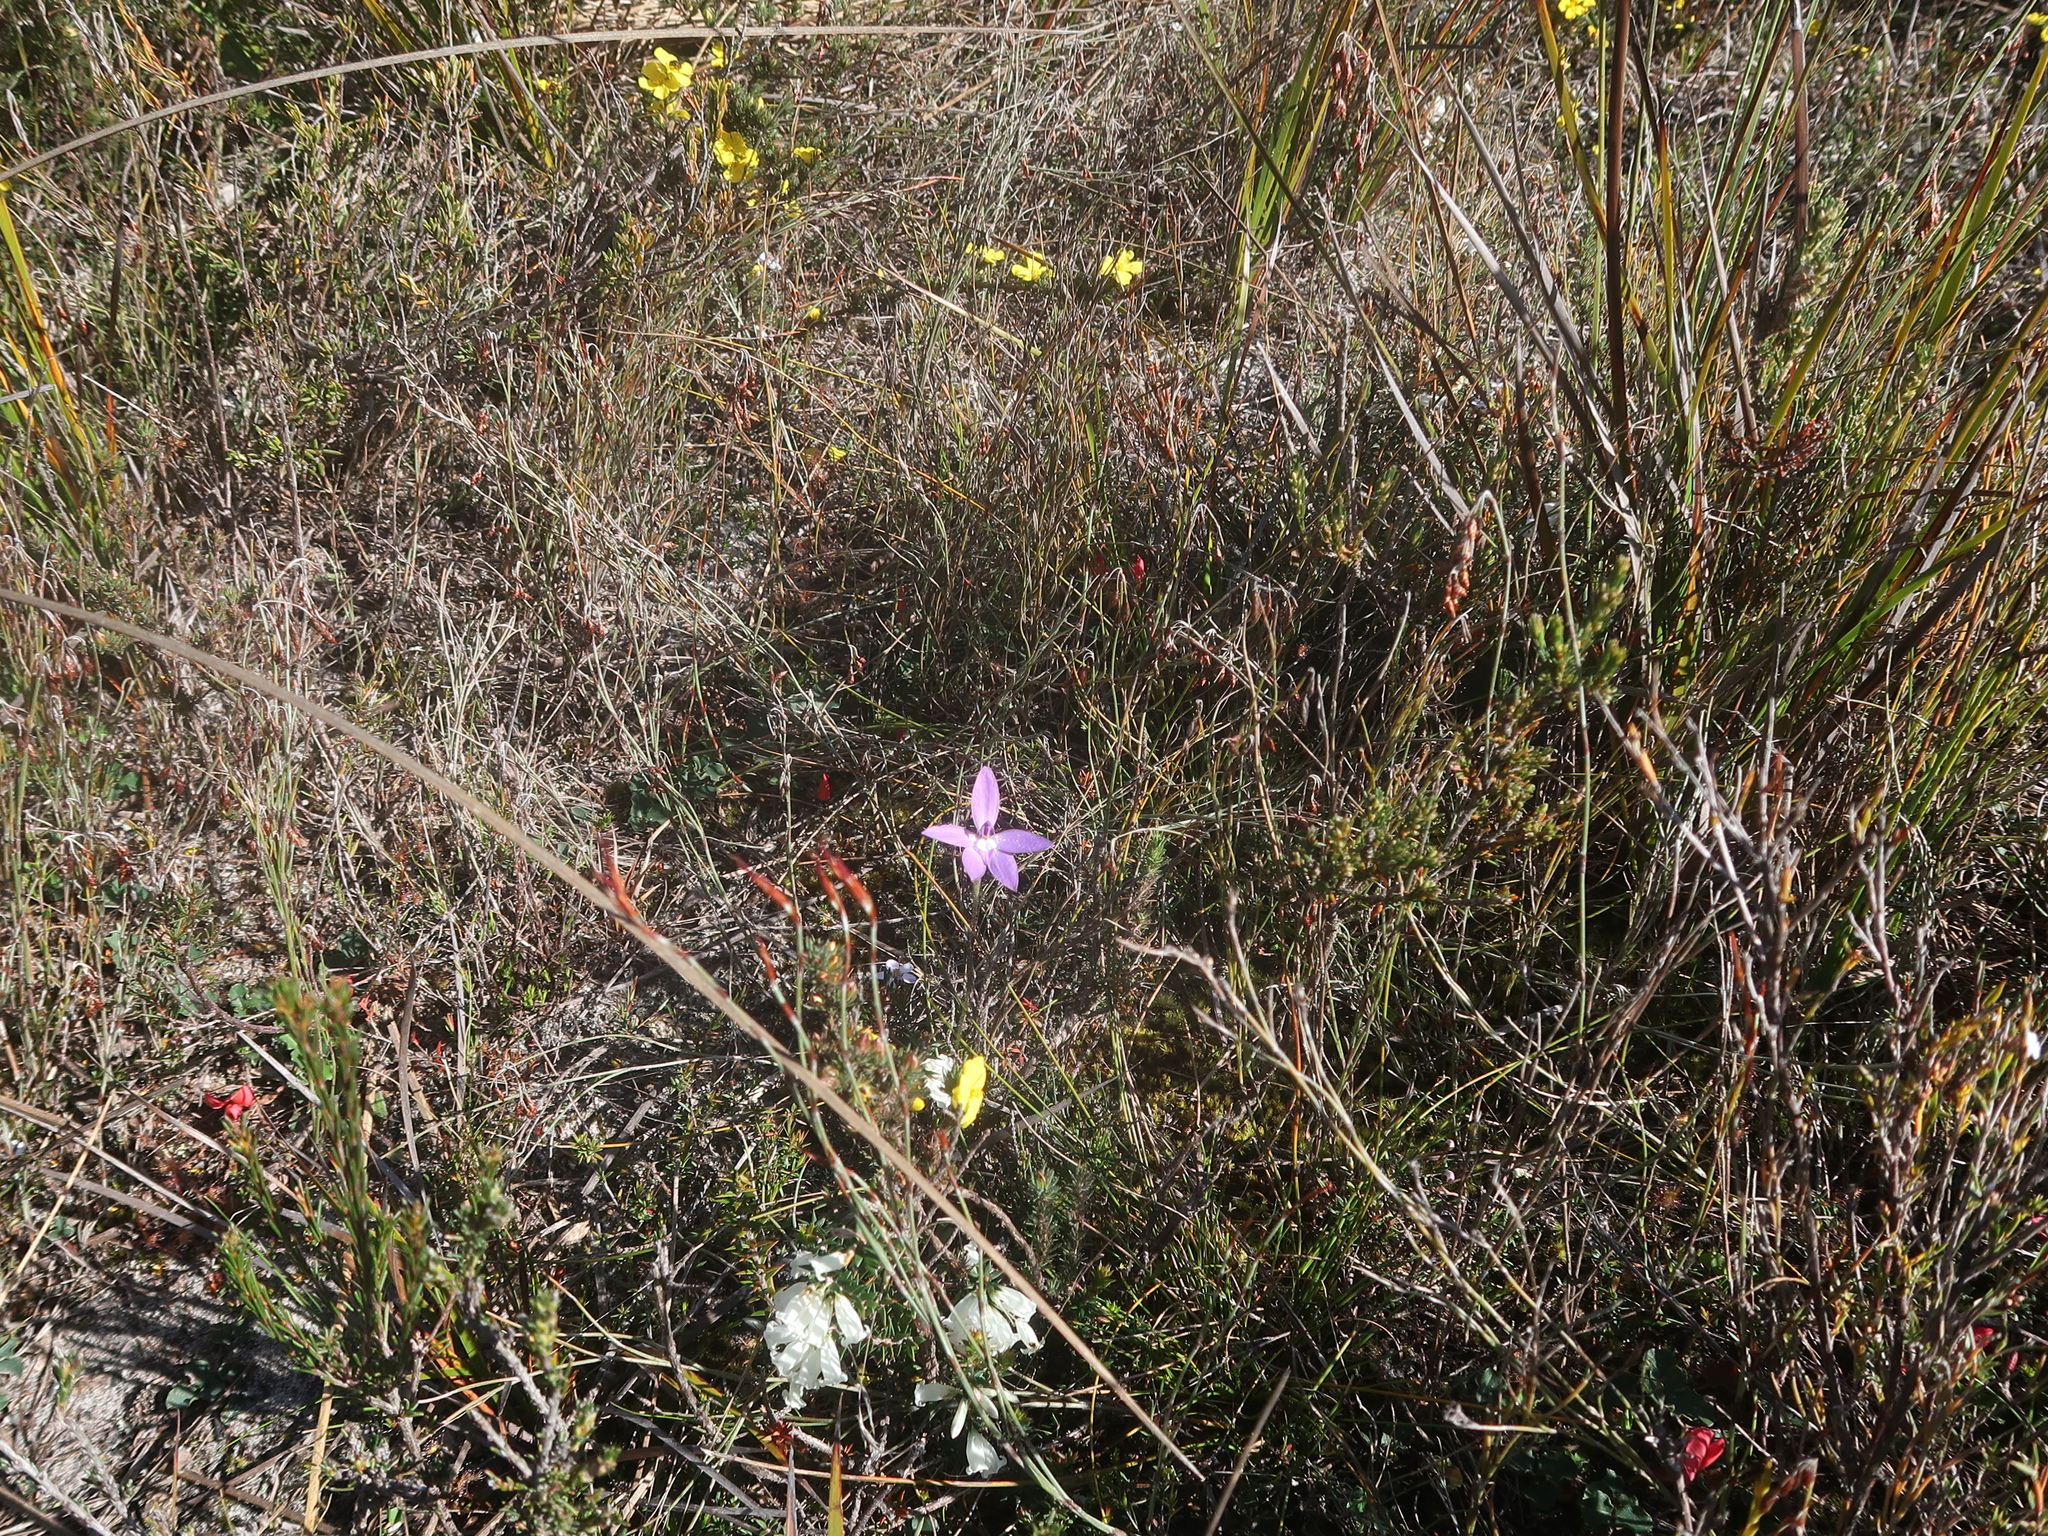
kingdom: Plantae
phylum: Tracheophyta
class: Liliopsida
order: Asparagales
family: Orchidaceae
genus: Caladenia
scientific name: Caladenia major
